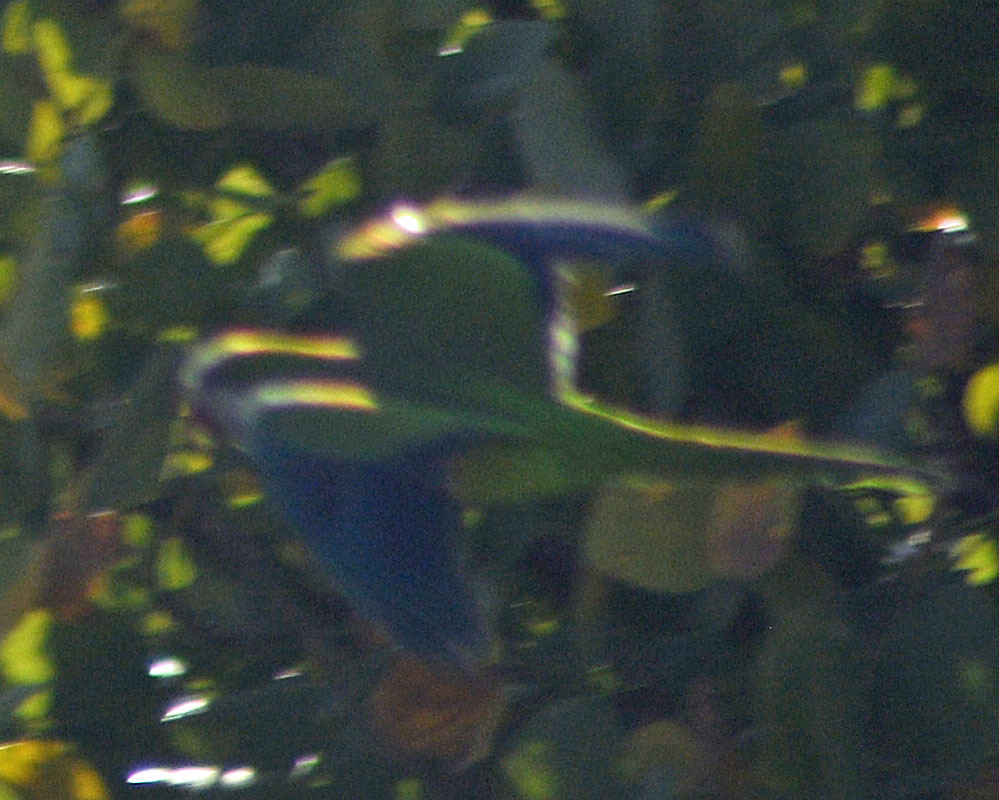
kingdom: Animalia
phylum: Chordata
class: Aves
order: Psittaciformes
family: Psittacidae
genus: Myiopsitta
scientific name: Myiopsitta monachus
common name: Monk parakeet
